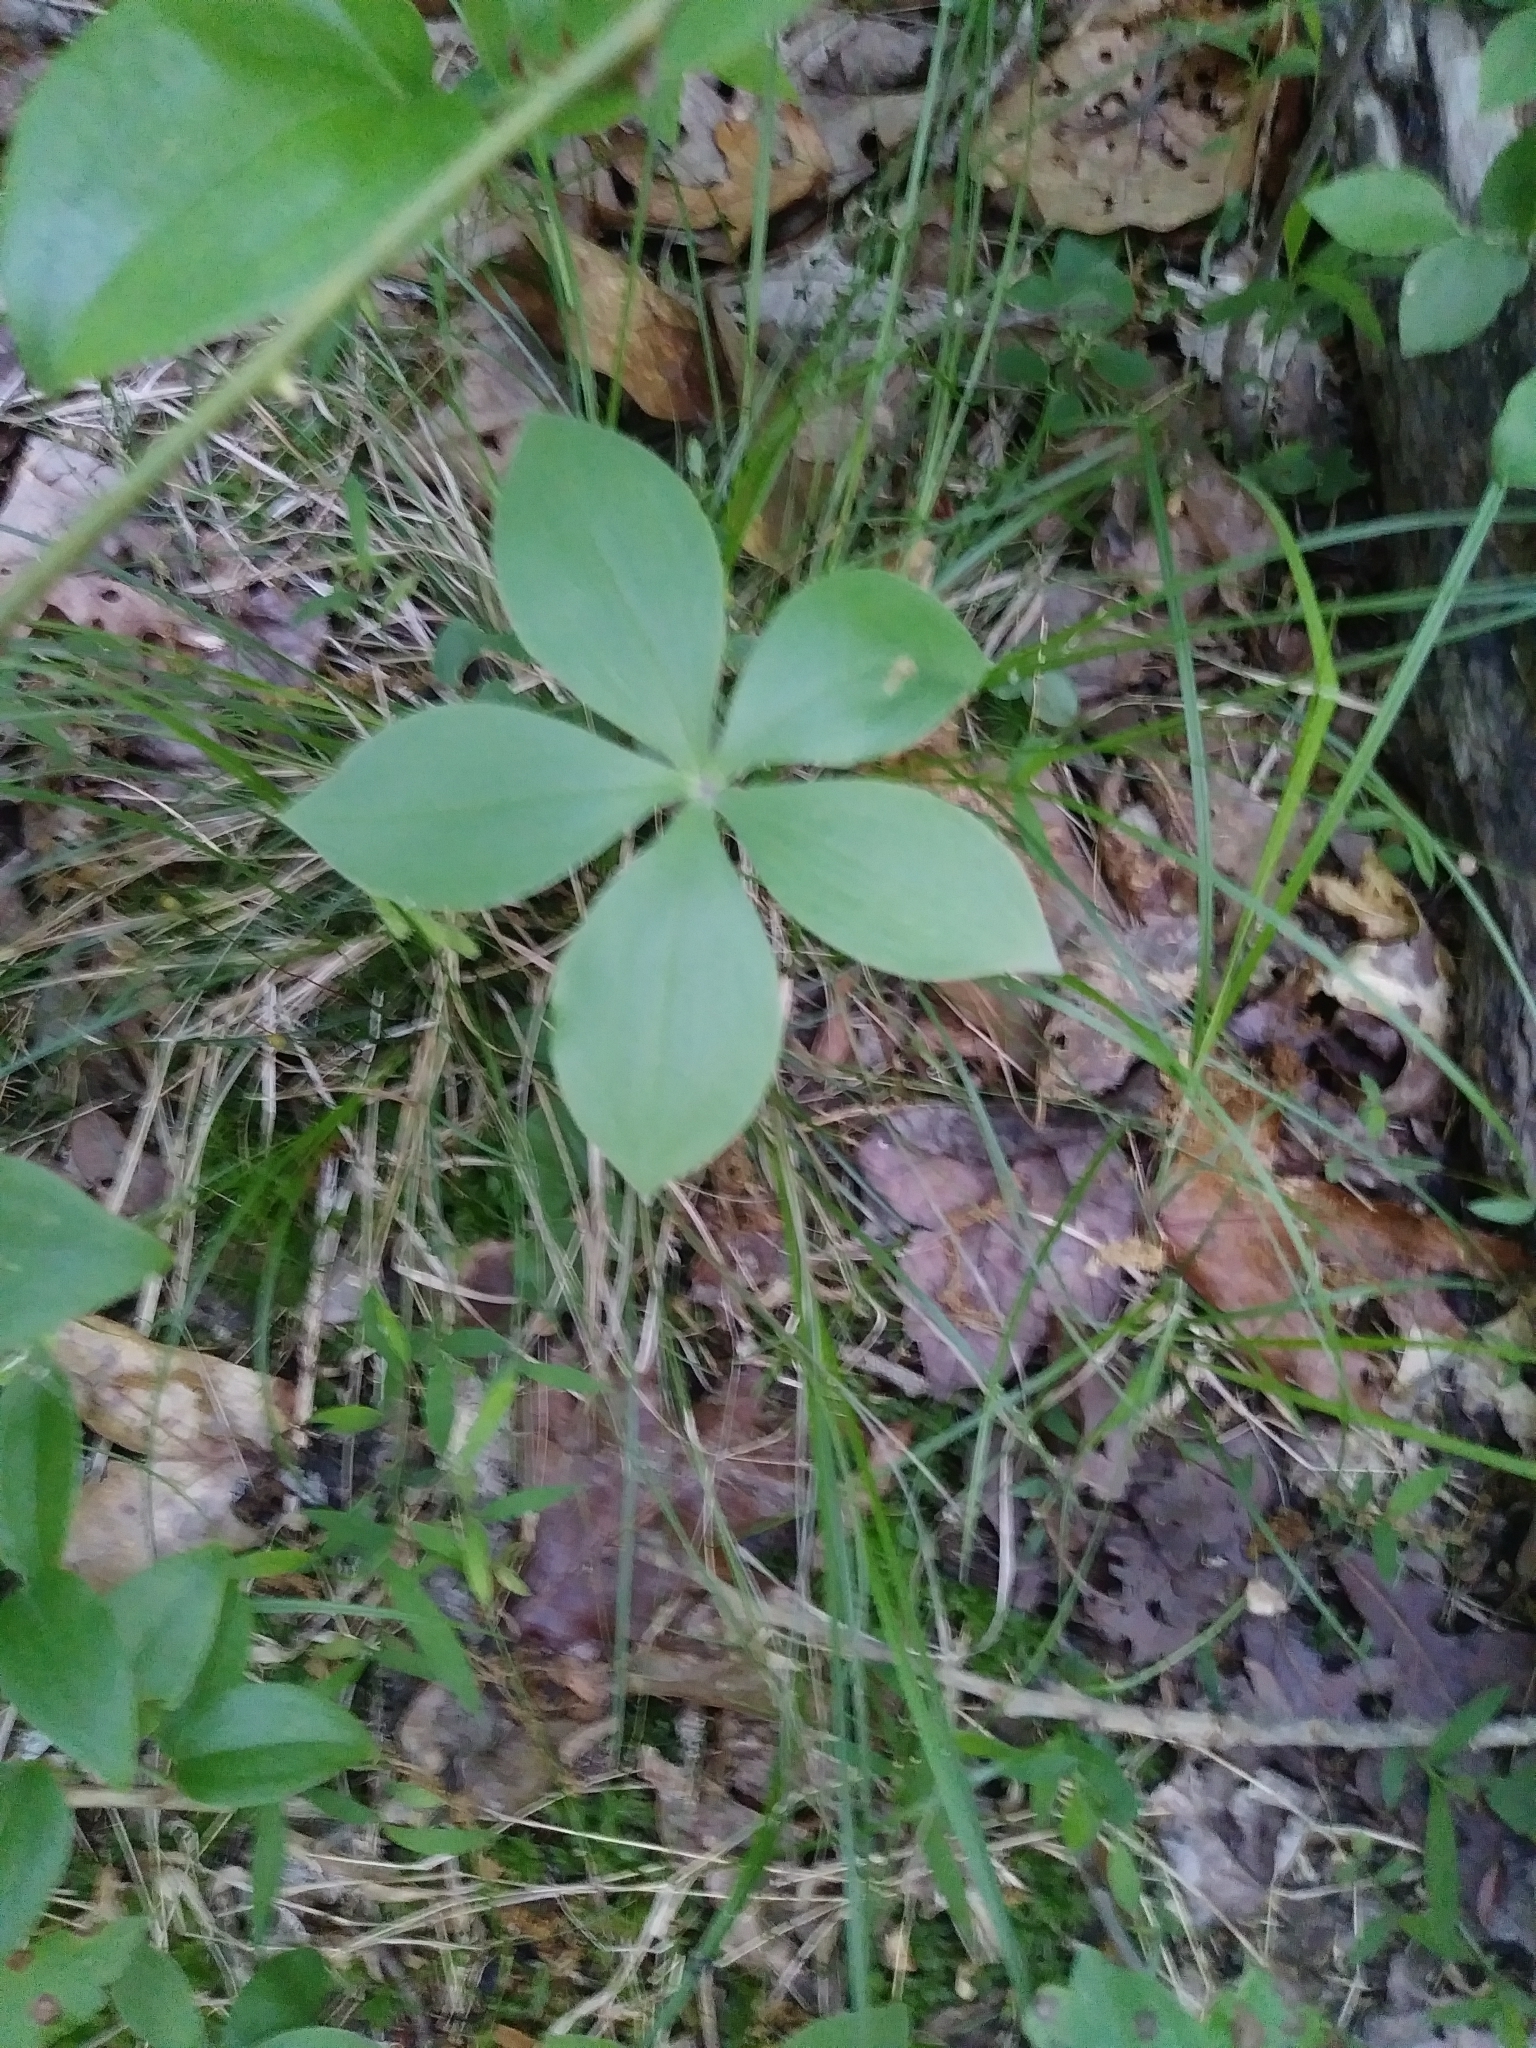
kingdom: Plantae
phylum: Tracheophyta
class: Liliopsida
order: Asparagales
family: Orchidaceae
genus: Isotria
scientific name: Isotria verticillata
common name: Large whorled pogonia
